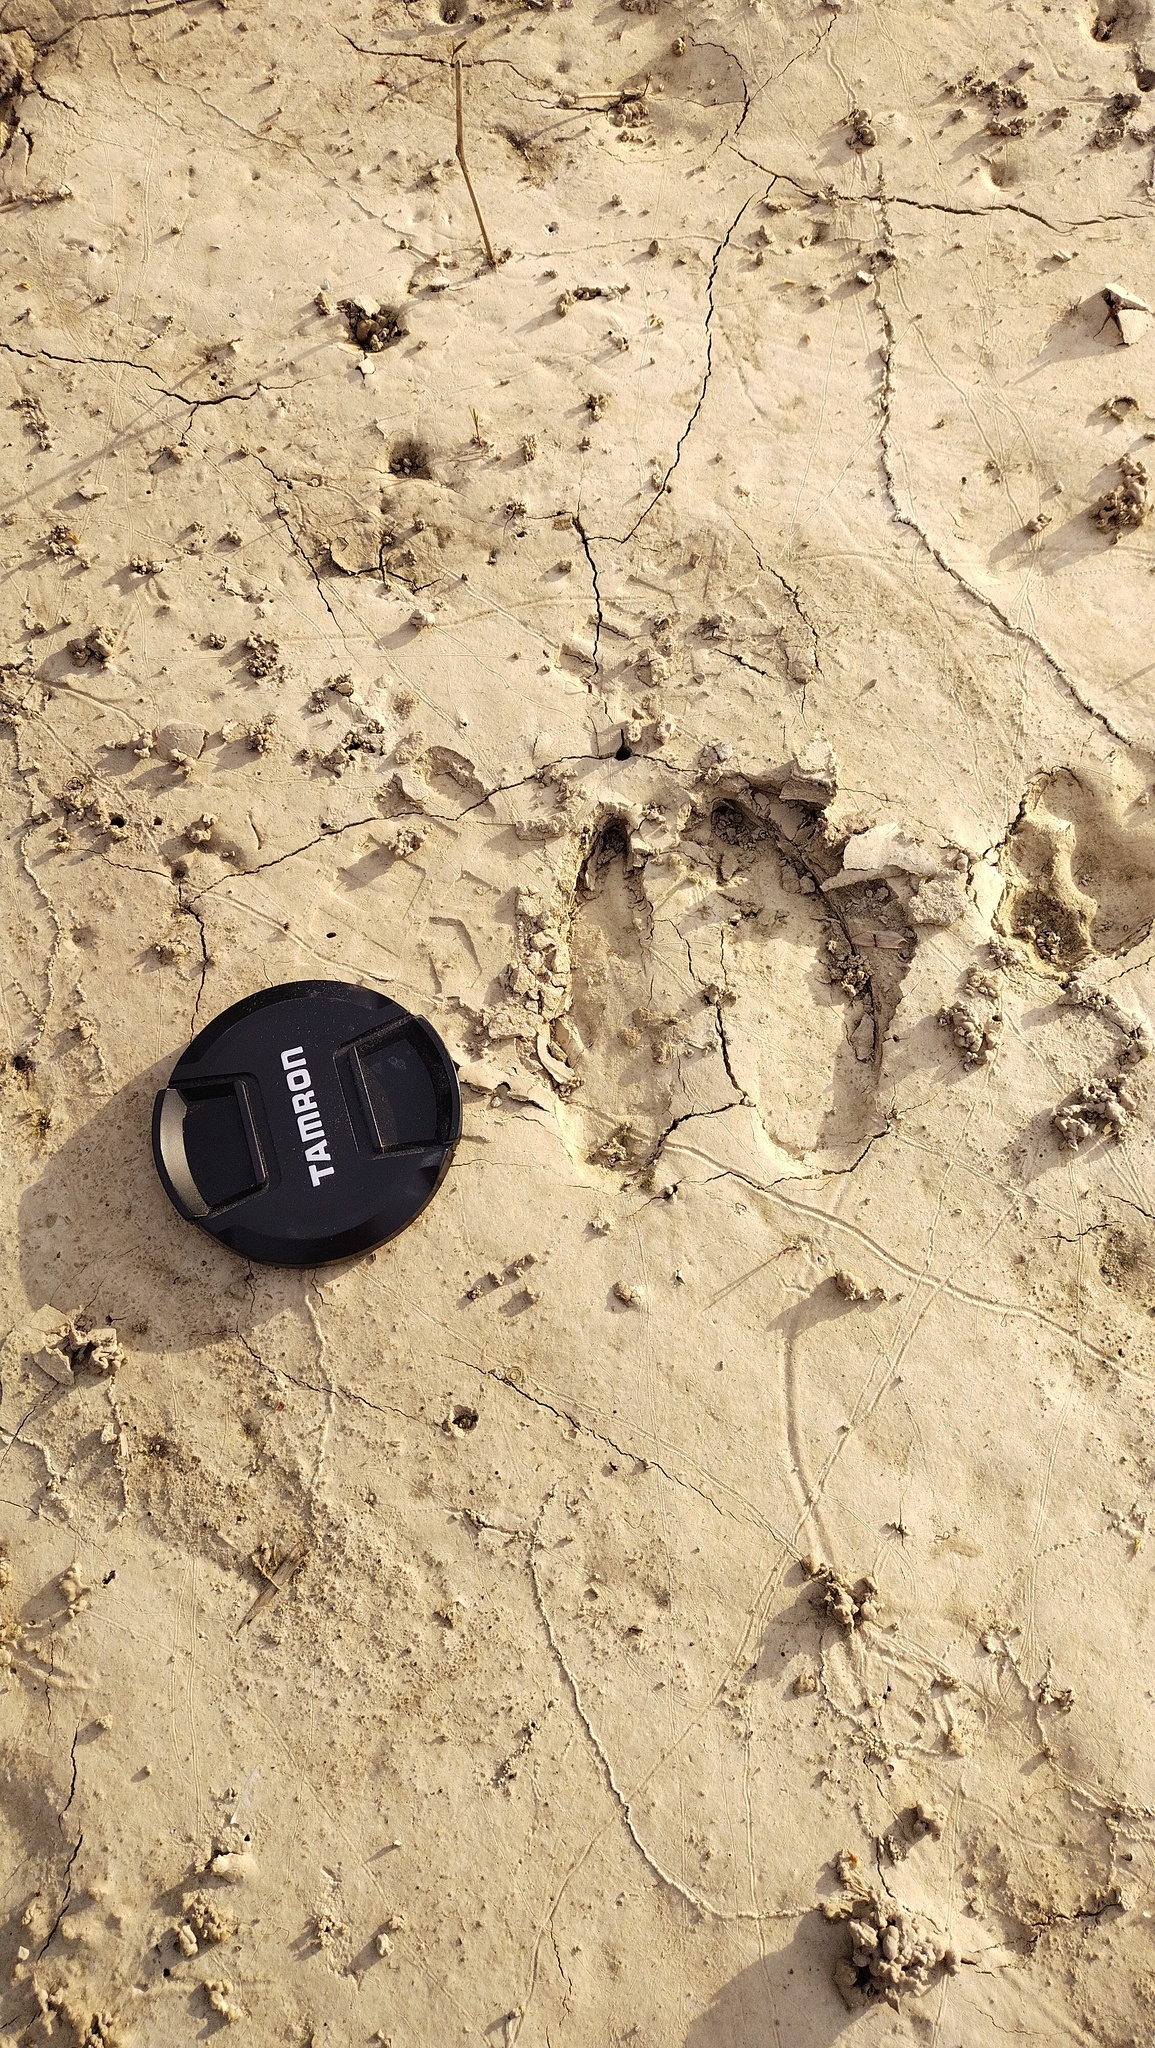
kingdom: Animalia
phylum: Chordata
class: Mammalia
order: Artiodactyla
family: Cervidae
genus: Alces
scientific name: Alces alces
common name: Moose
